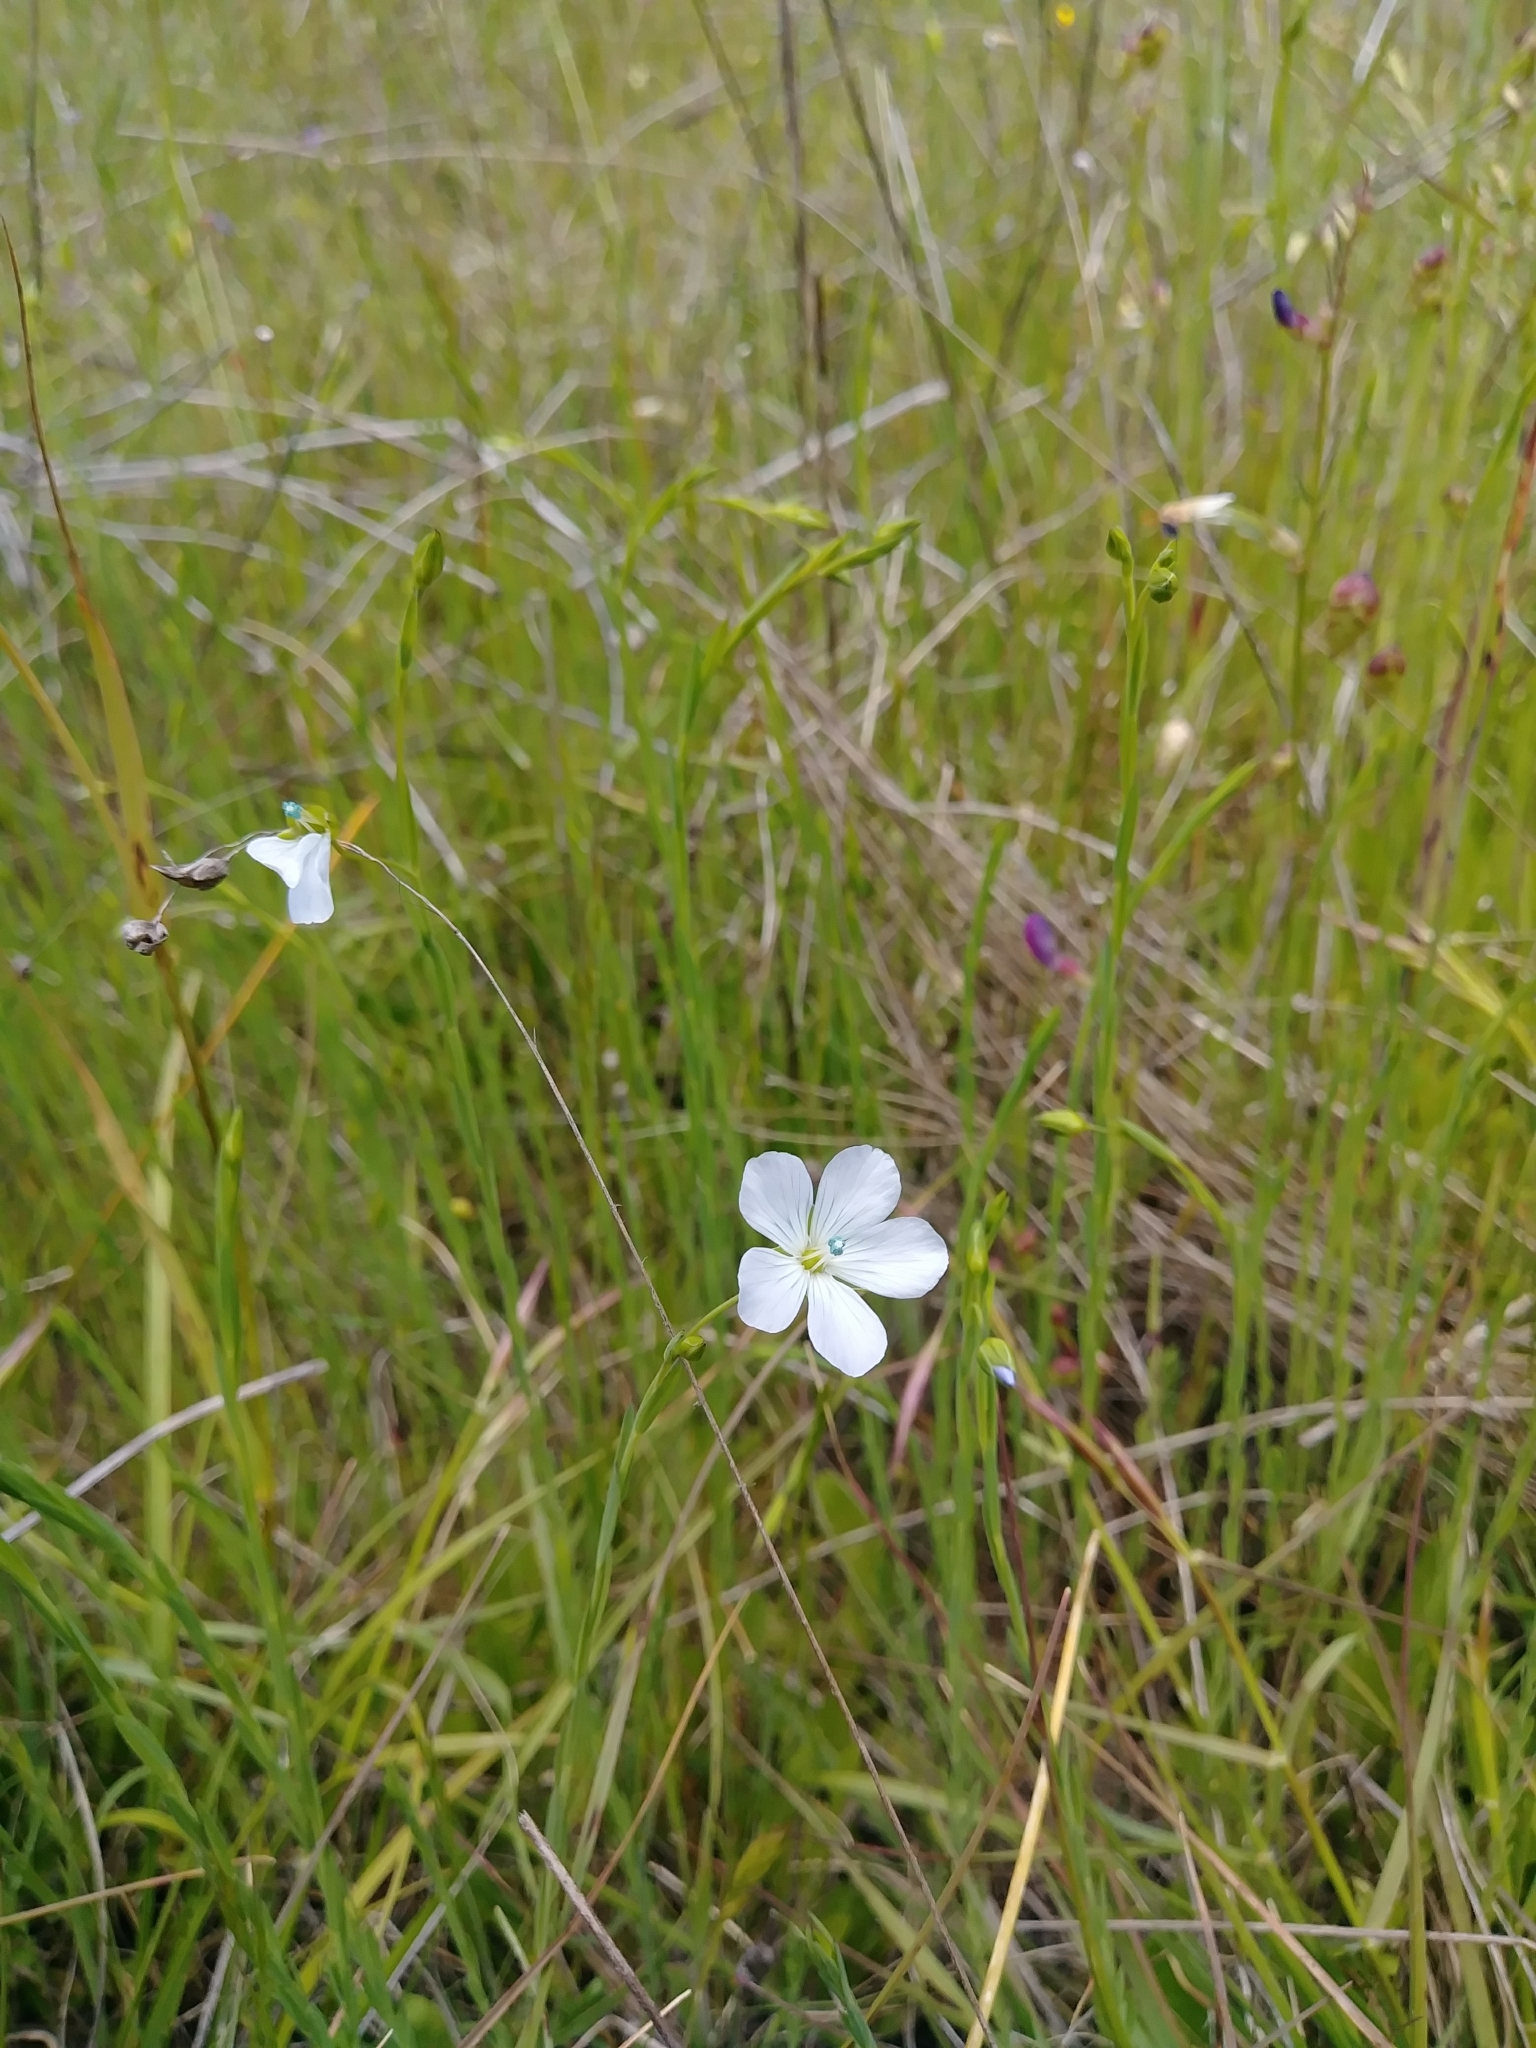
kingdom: Plantae
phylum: Tracheophyta
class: Magnoliopsida
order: Malpighiales
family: Linaceae
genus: Linum
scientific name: Linum bienne
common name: Pale flax
